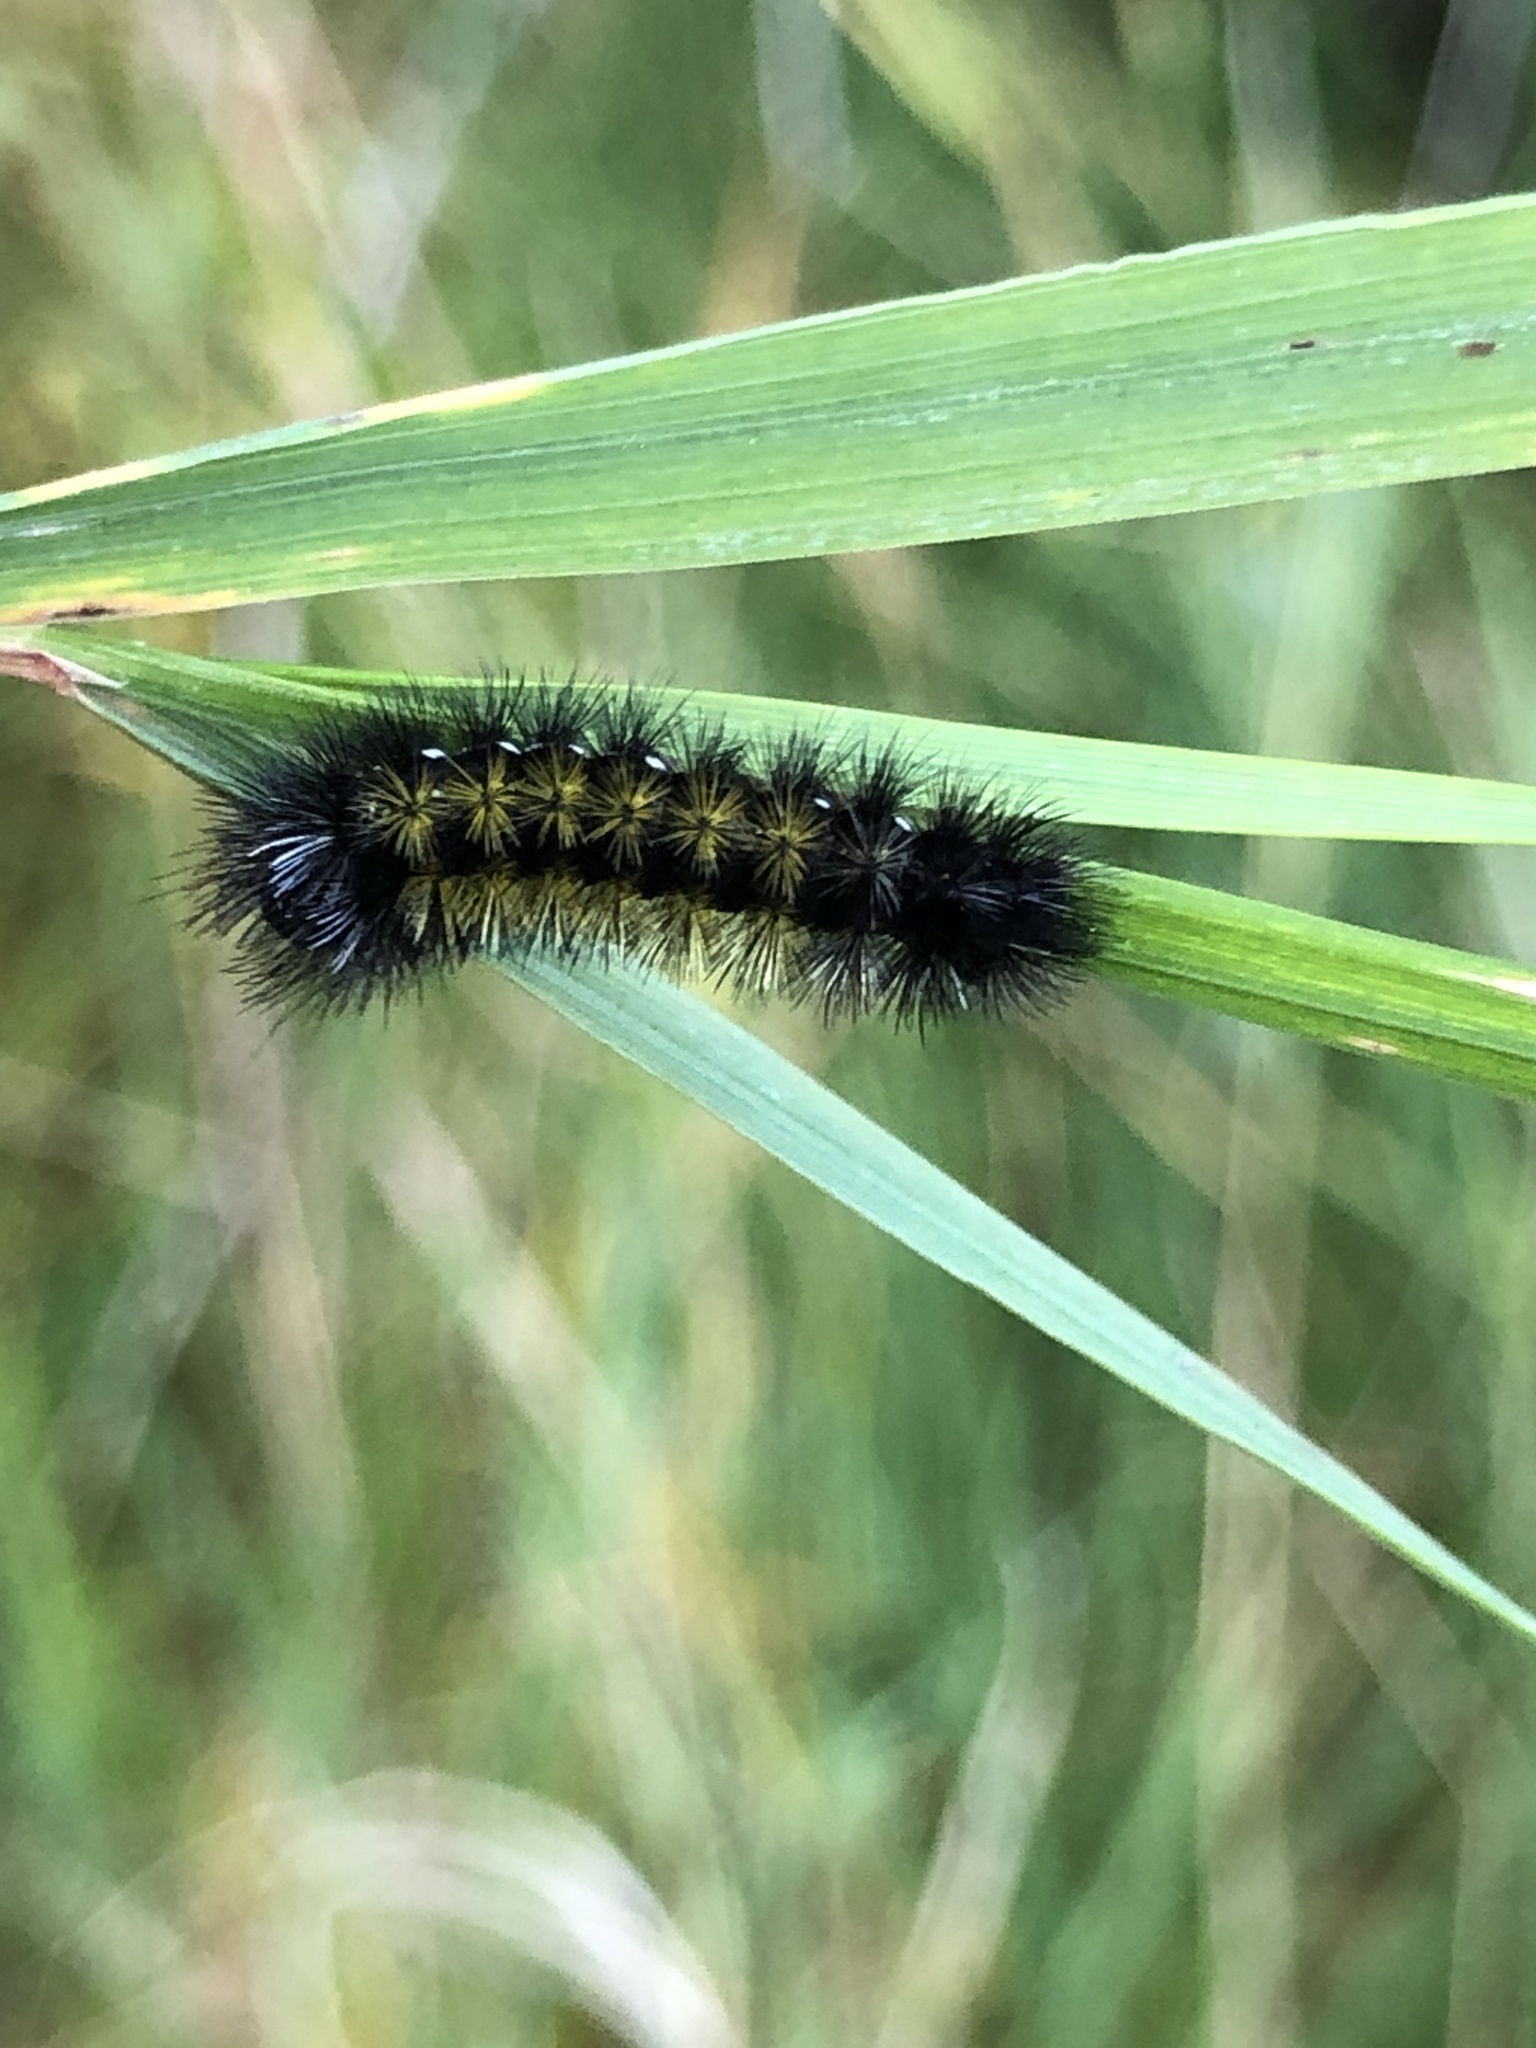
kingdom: Animalia
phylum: Arthropoda
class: Insecta
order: Lepidoptera
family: Erebidae
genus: Ctenucha
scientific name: Ctenucha virginica
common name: Virginia ctenucha moth
